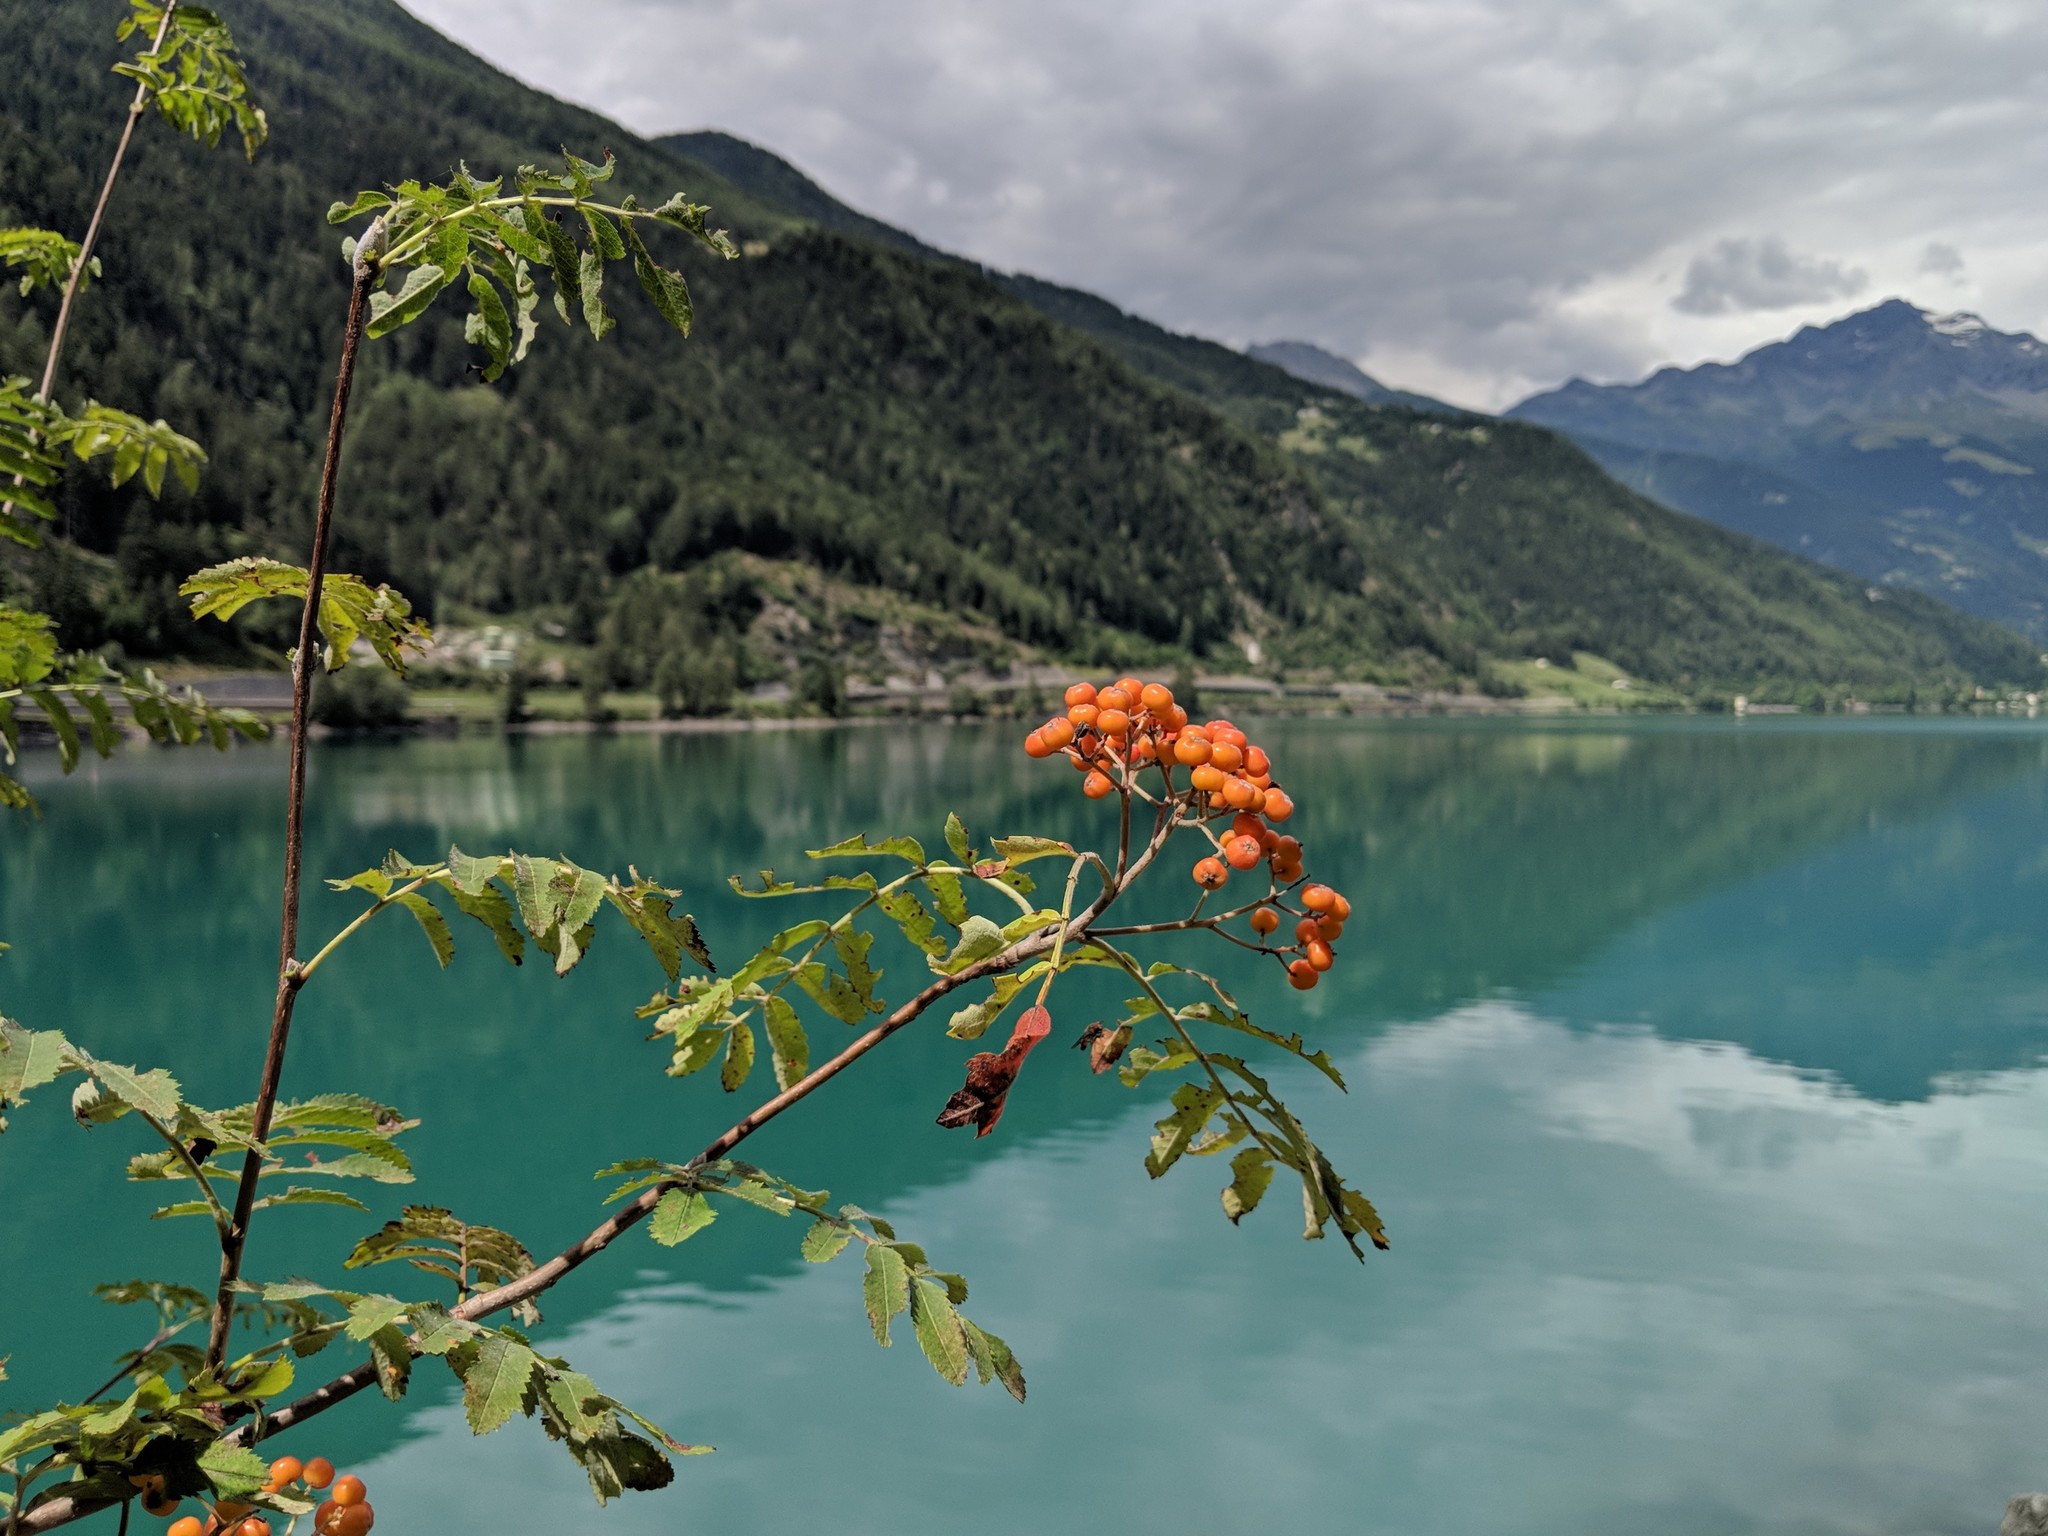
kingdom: Plantae
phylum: Tracheophyta
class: Magnoliopsida
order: Rosales
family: Rosaceae
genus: Sorbus
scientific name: Sorbus aucuparia
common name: Rowan
